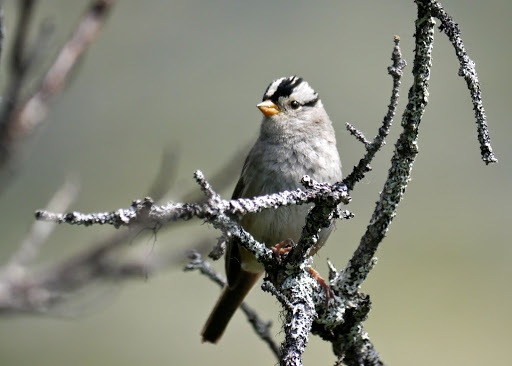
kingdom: Animalia
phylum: Chordata
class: Aves
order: Passeriformes
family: Passerellidae
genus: Zonotrichia
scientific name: Zonotrichia leucophrys
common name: White-crowned sparrow
